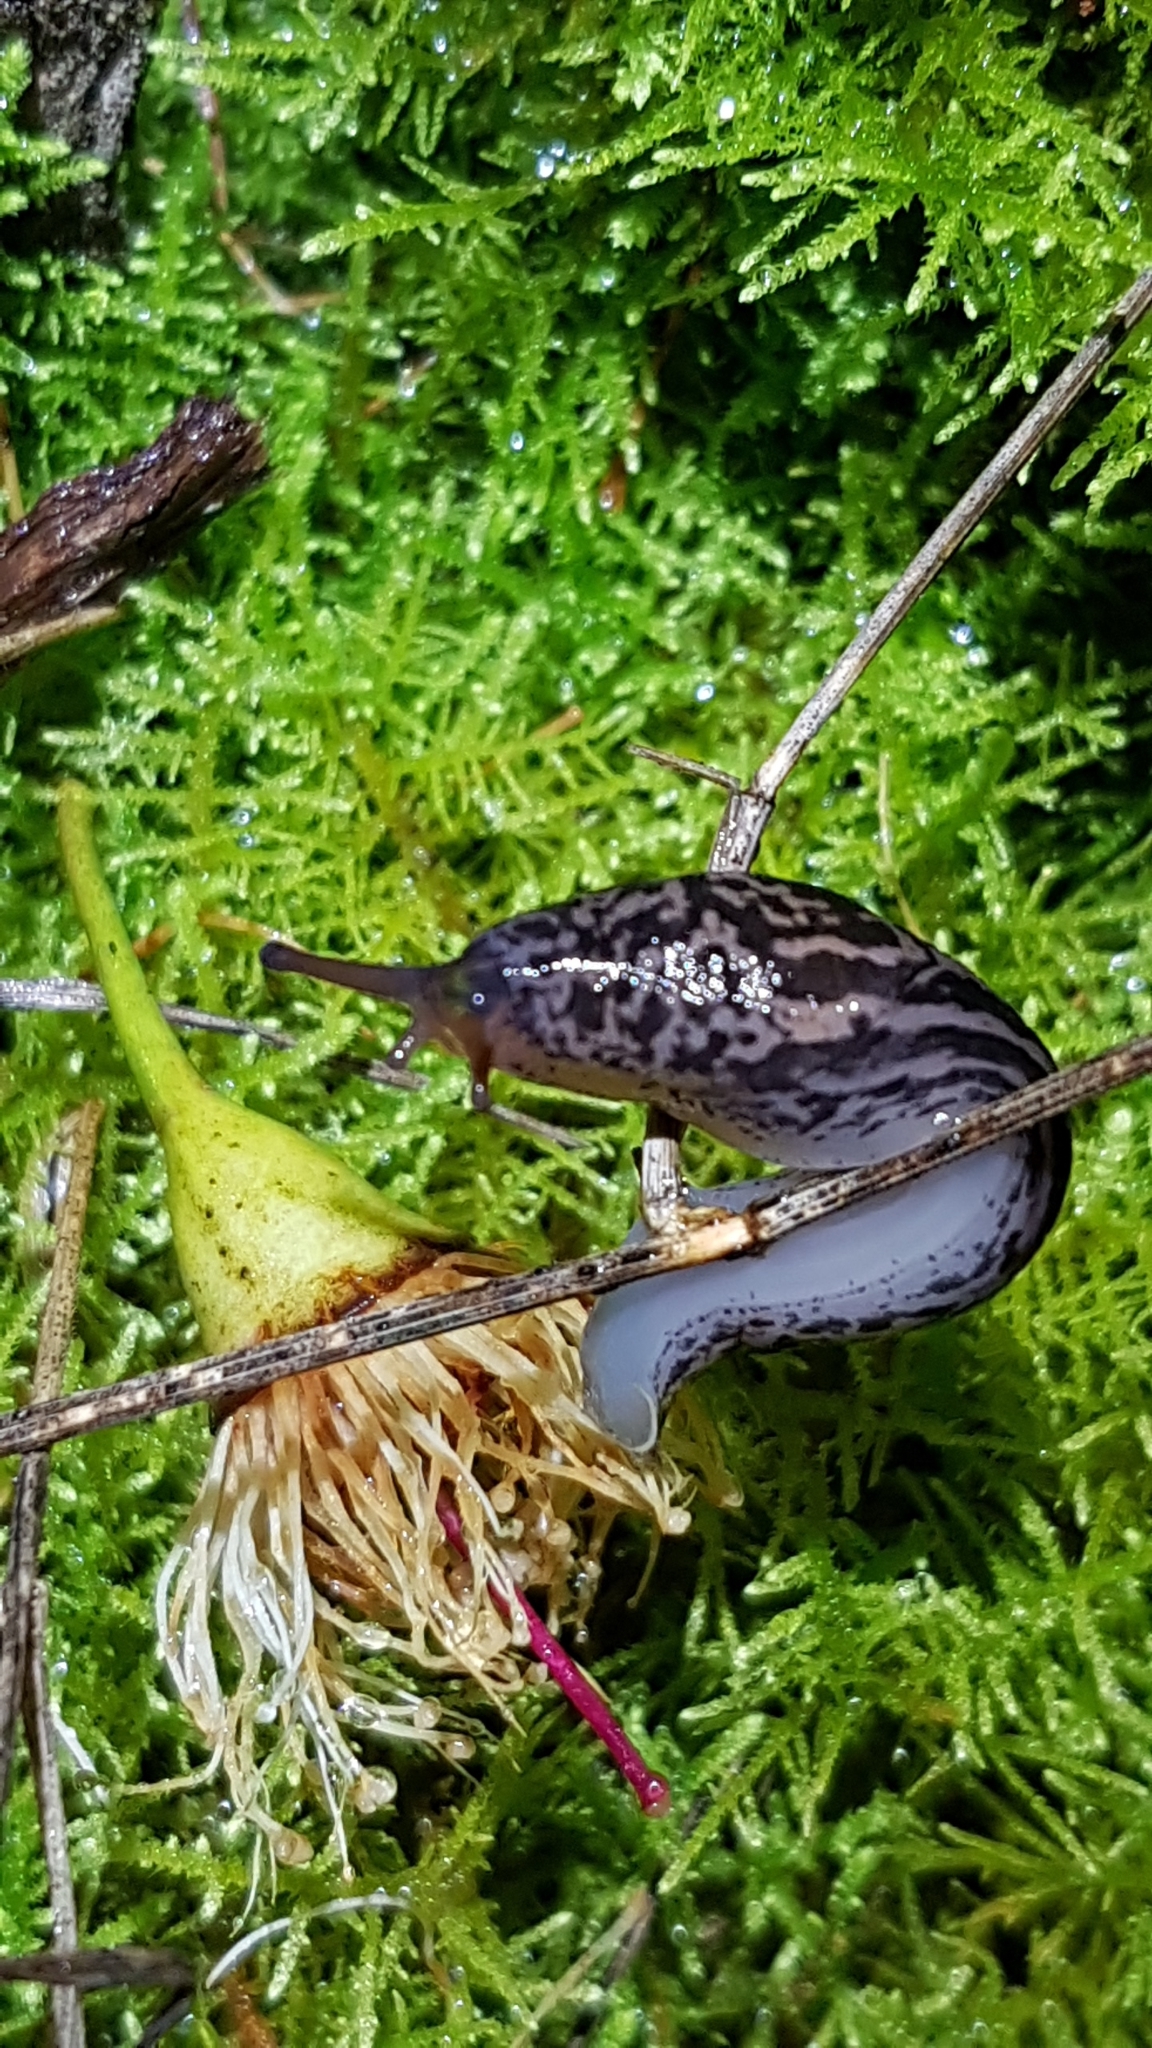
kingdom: Animalia
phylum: Mollusca
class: Gastropoda
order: Stylommatophora
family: Limacidae
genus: Limax
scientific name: Limax maximus
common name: Great grey slug
